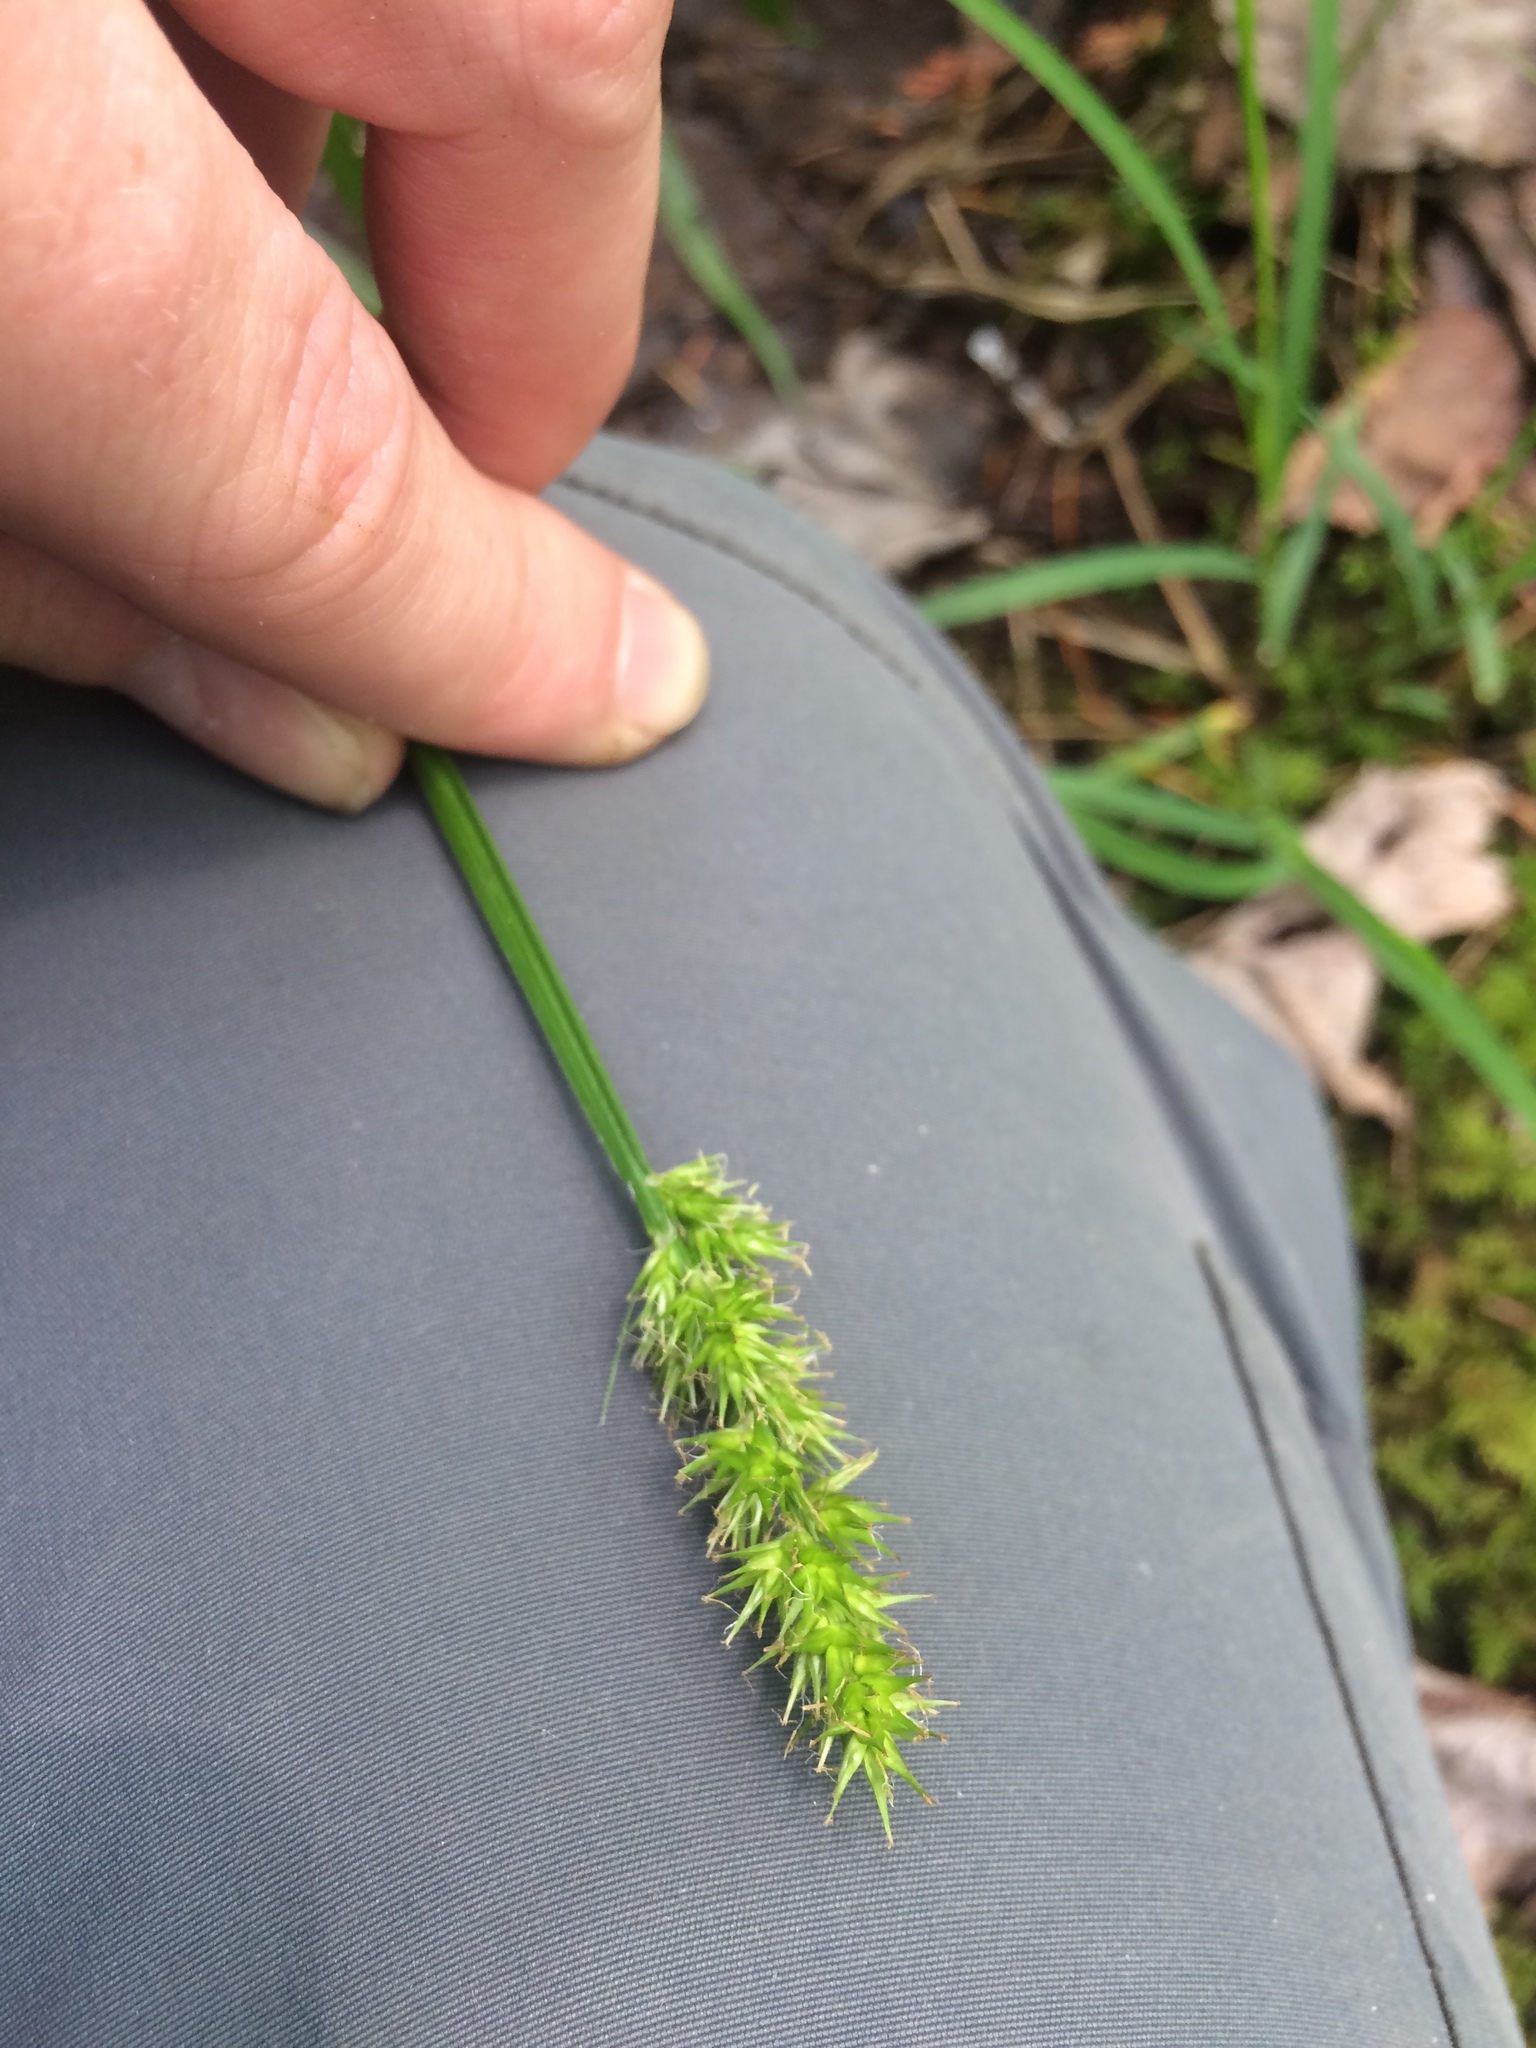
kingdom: Plantae
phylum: Tracheophyta
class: Liliopsida
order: Poales
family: Cyperaceae
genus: Carex
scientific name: Carex stipata
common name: Awl-fruited sedge
